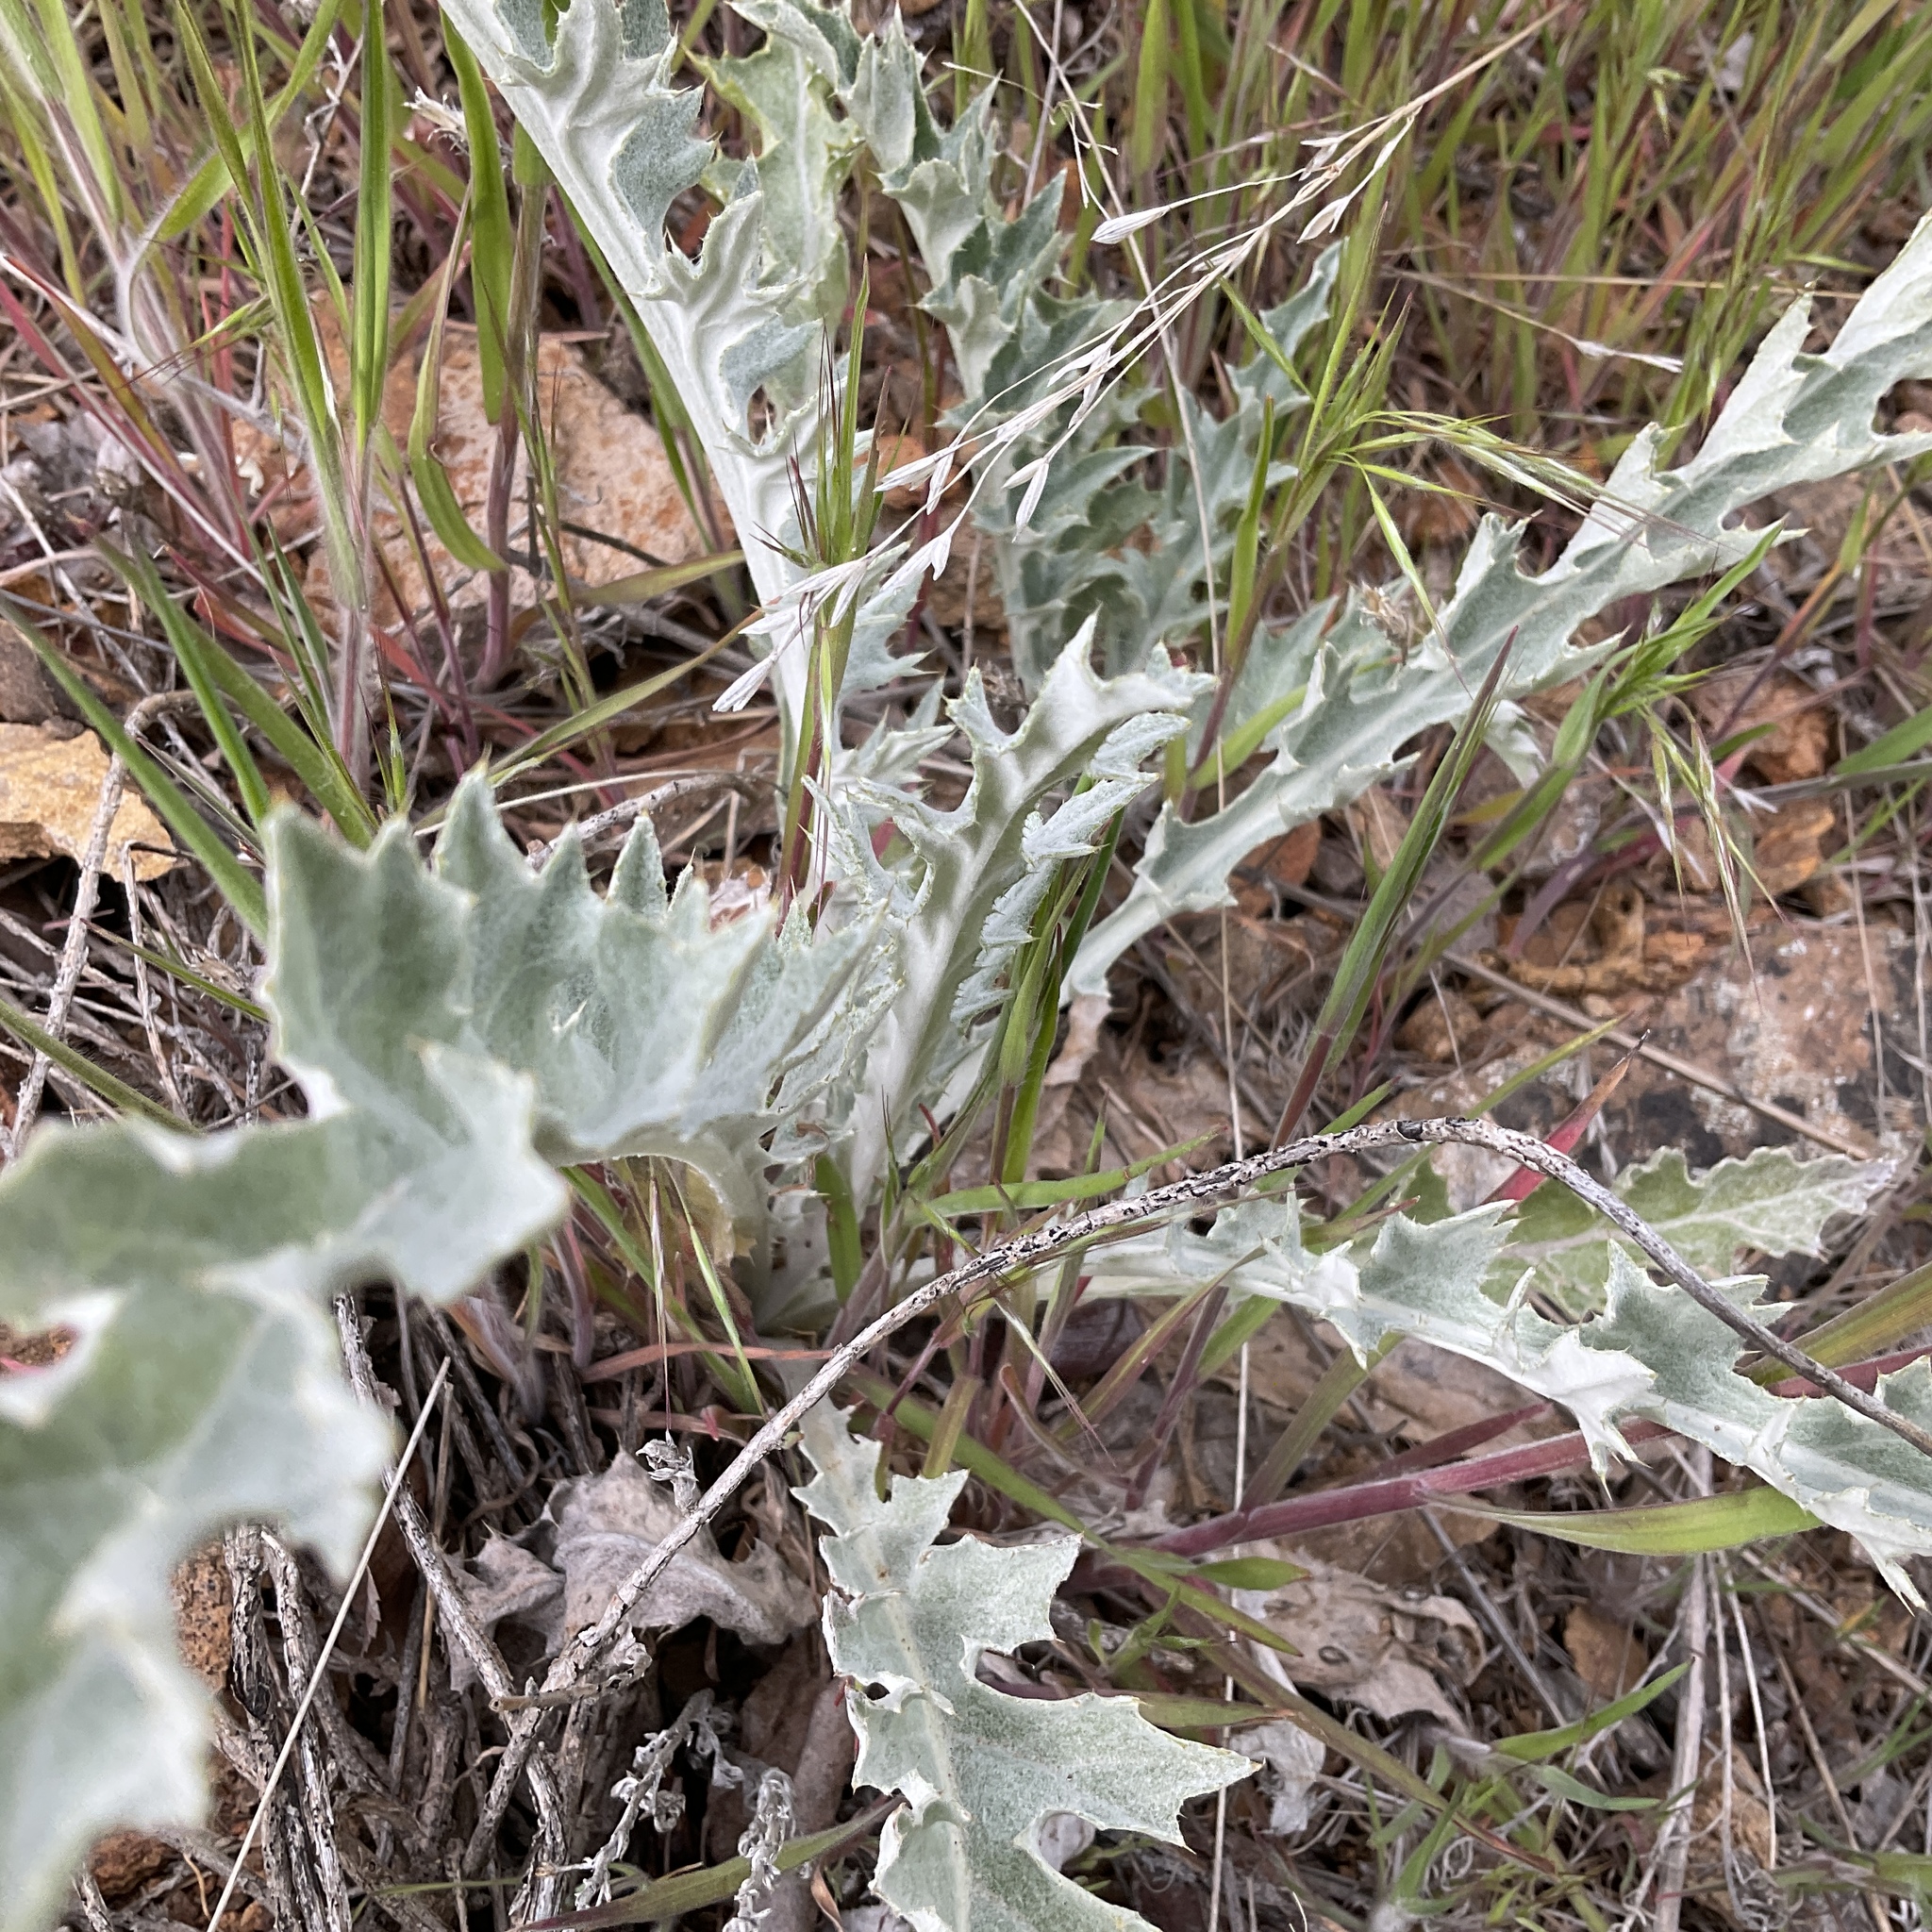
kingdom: Plantae
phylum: Tracheophyta
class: Magnoliopsida
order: Asterales
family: Asteraceae
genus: Cirsium
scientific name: Cirsium undulatum
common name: Pasture thistle
